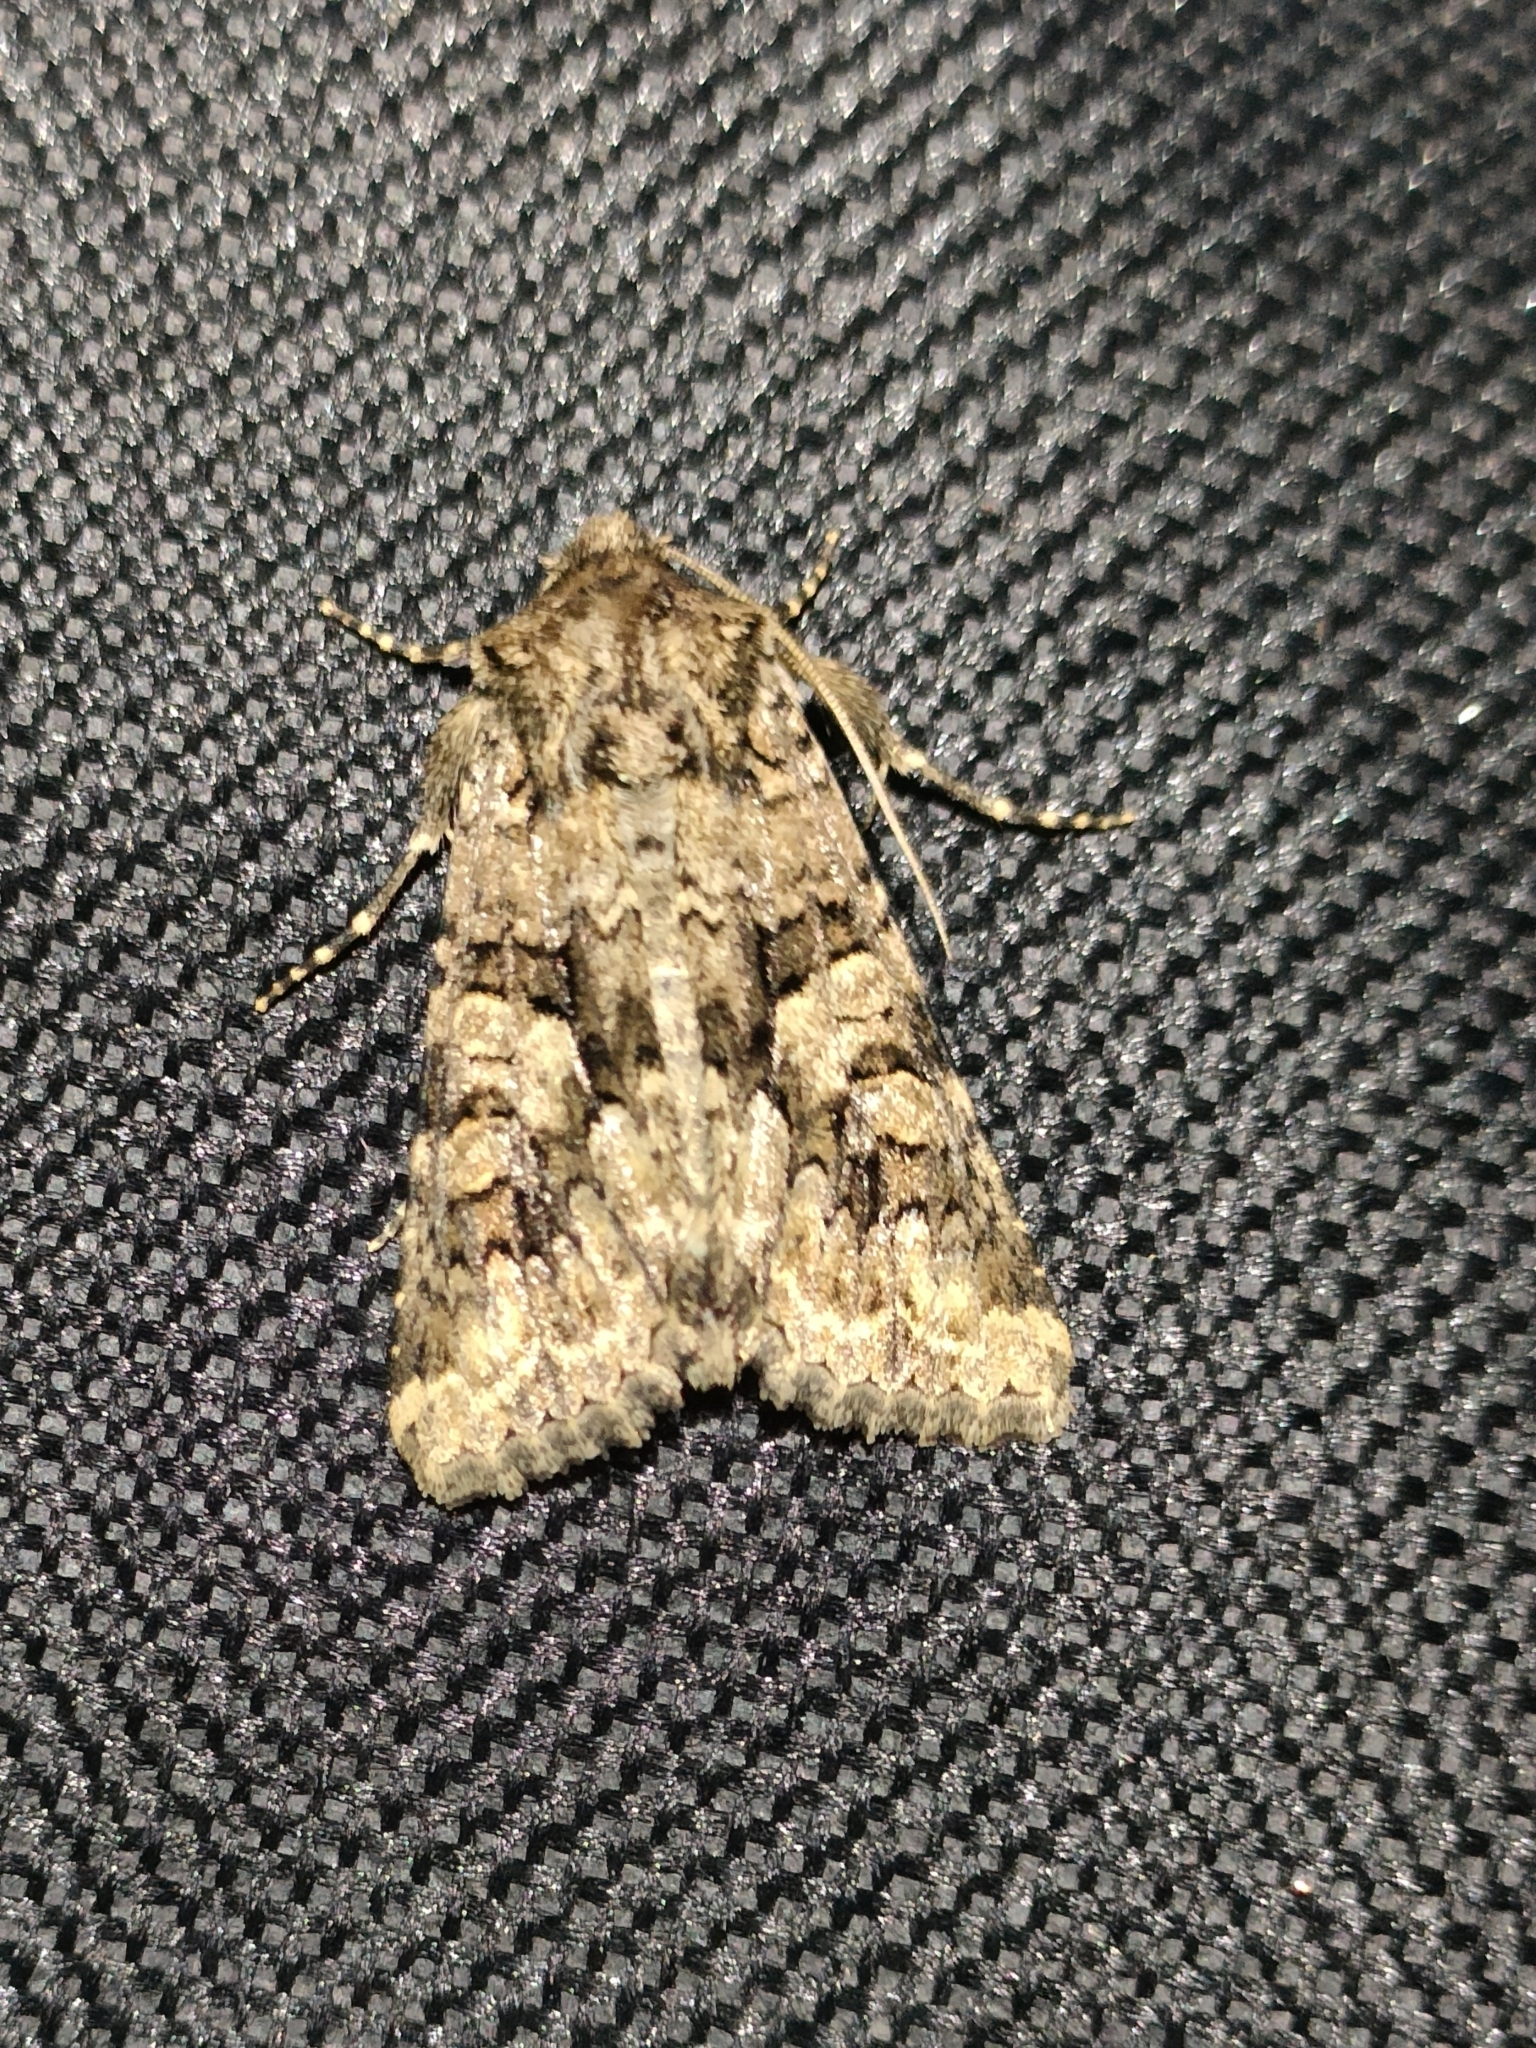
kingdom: Animalia
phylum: Arthropoda
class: Insecta
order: Lepidoptera
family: Noctuidae
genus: Conisania
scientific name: Conisania andalusica
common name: Barrett's marbled coronet
